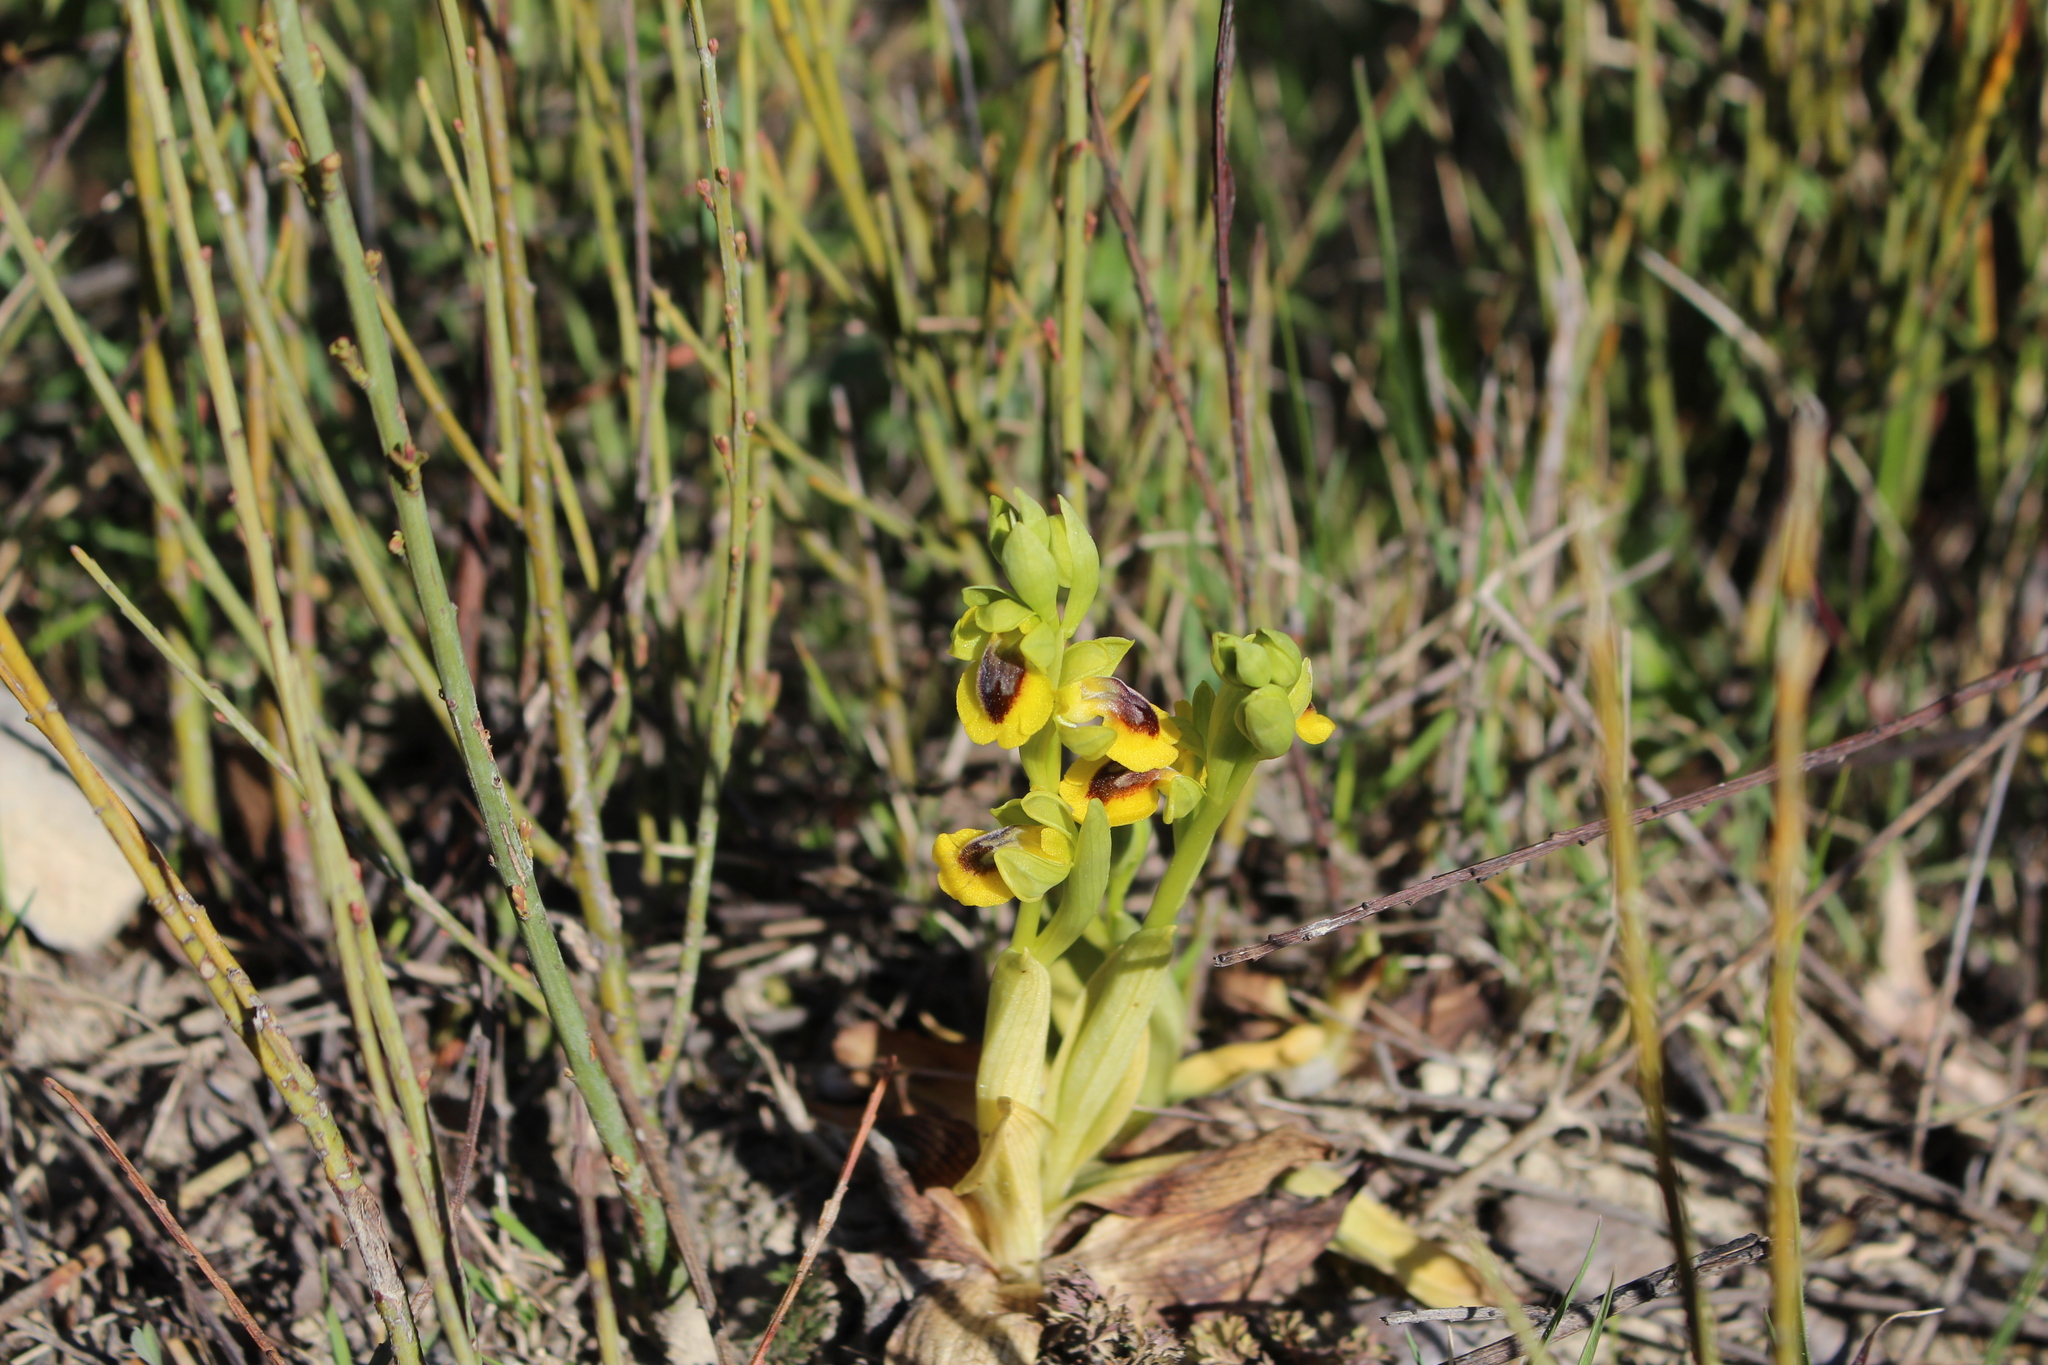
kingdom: Plantae
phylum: Tracheophyta
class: Liliopsida
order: Asparagales
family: Orchidaceae
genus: Ophrys
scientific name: Ophrys lutea
